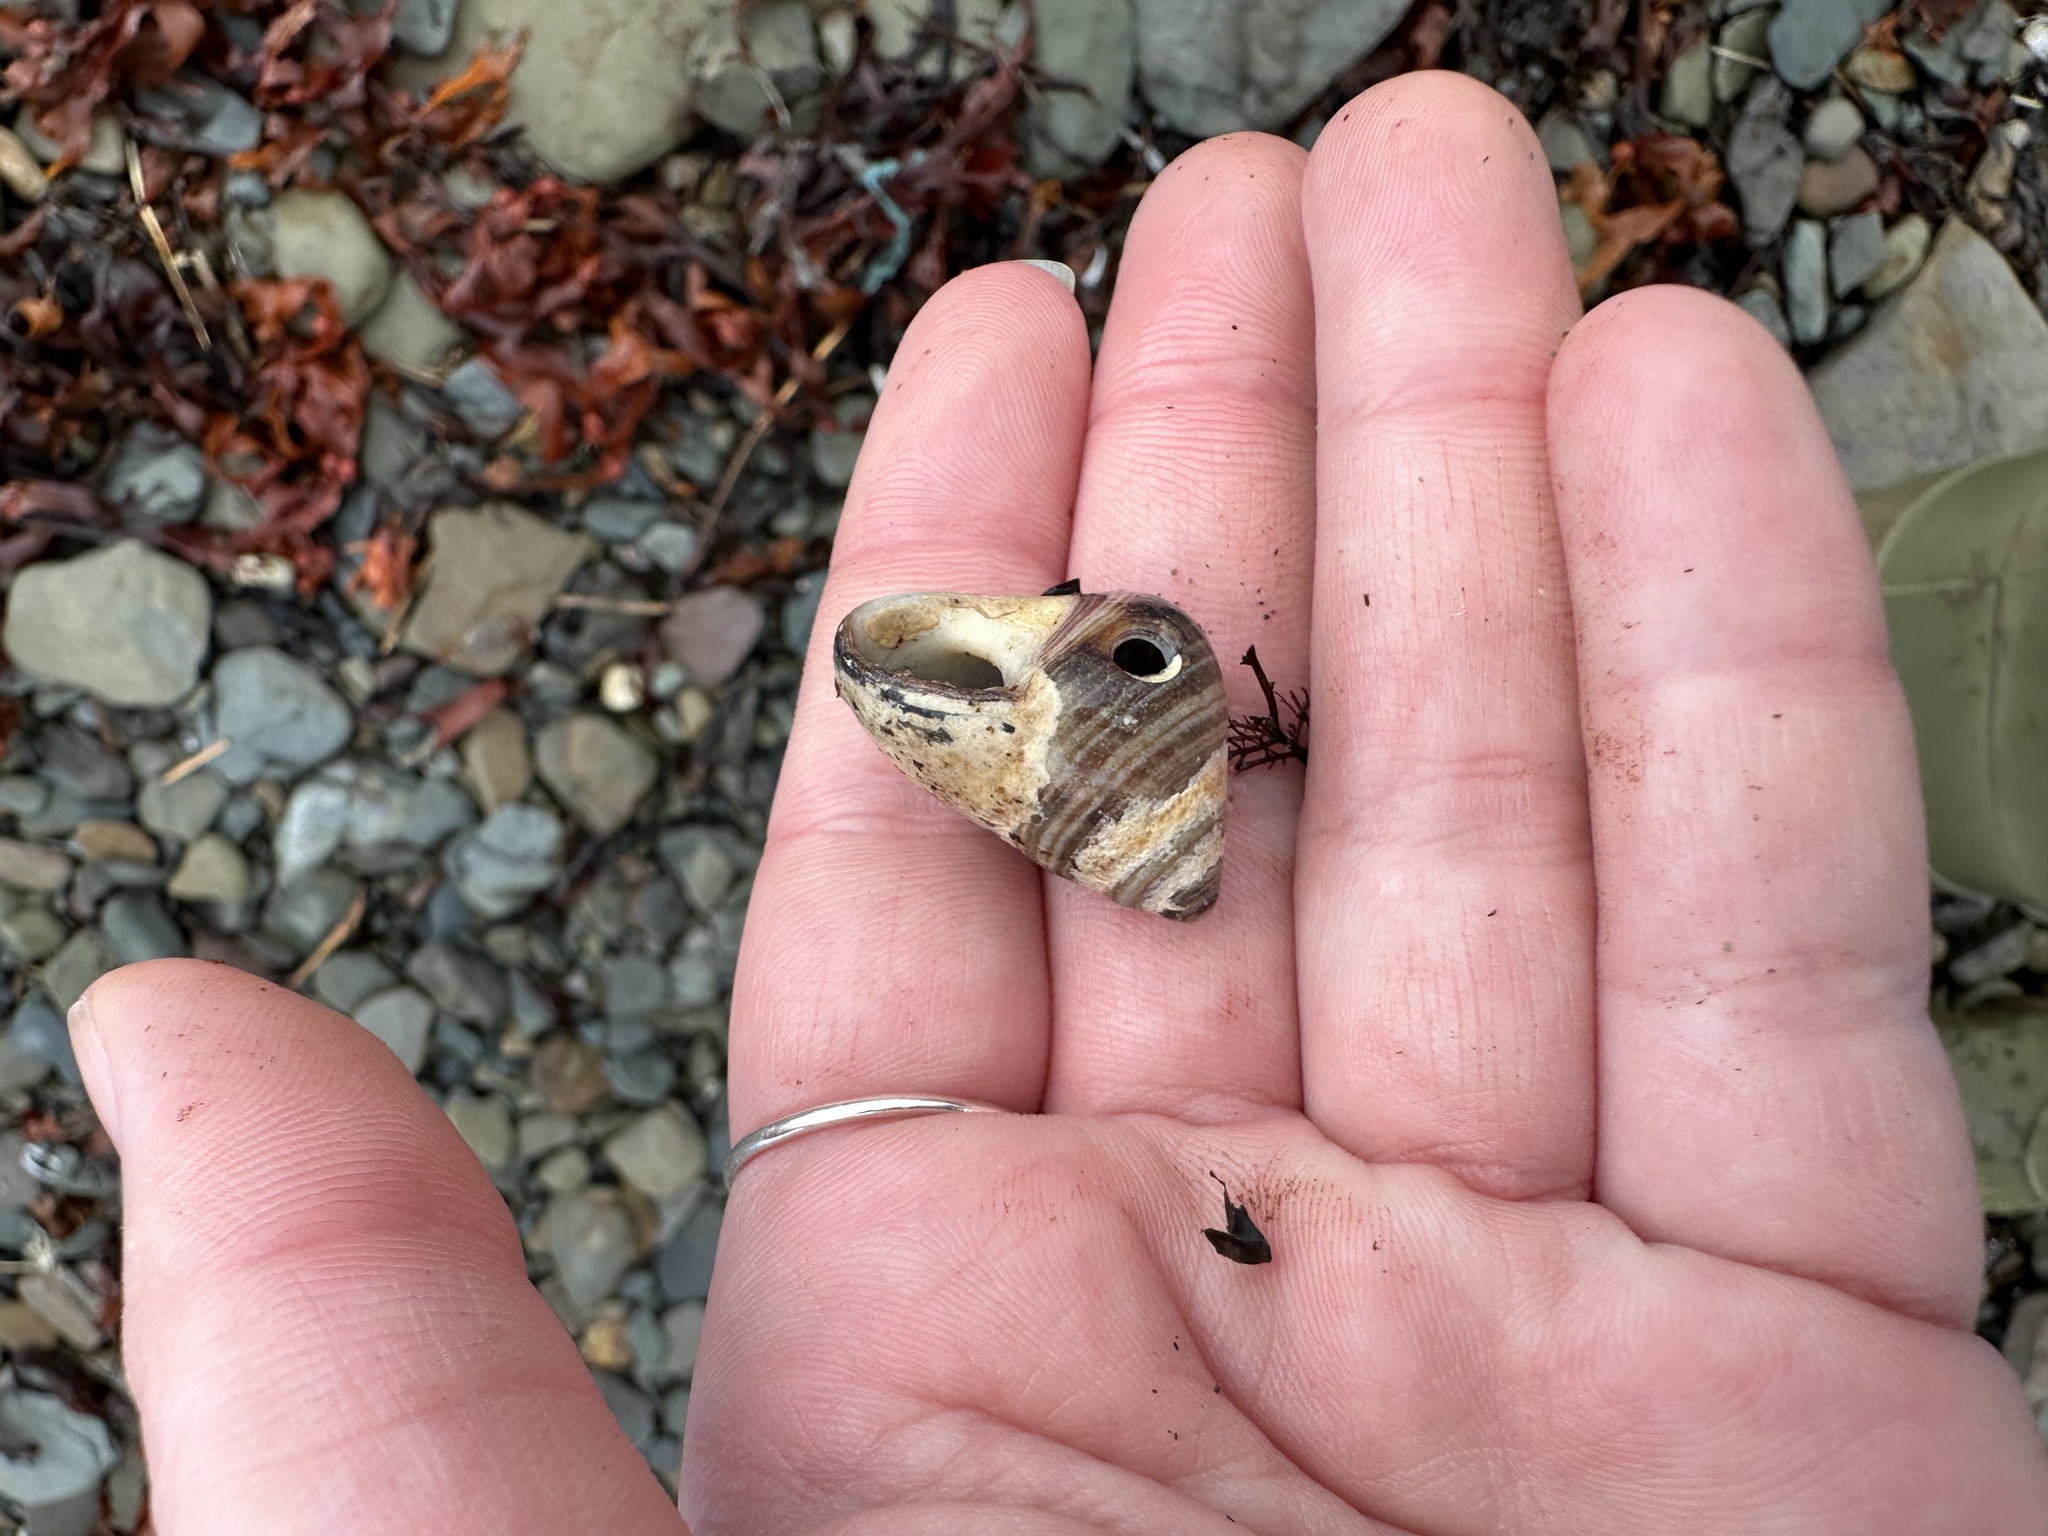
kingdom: Animalia
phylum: Mollusca
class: Gastropoda
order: Littorinimorpha
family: Littorinidae
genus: Littorina
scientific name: Littorina littorea
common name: Common periwinkle
